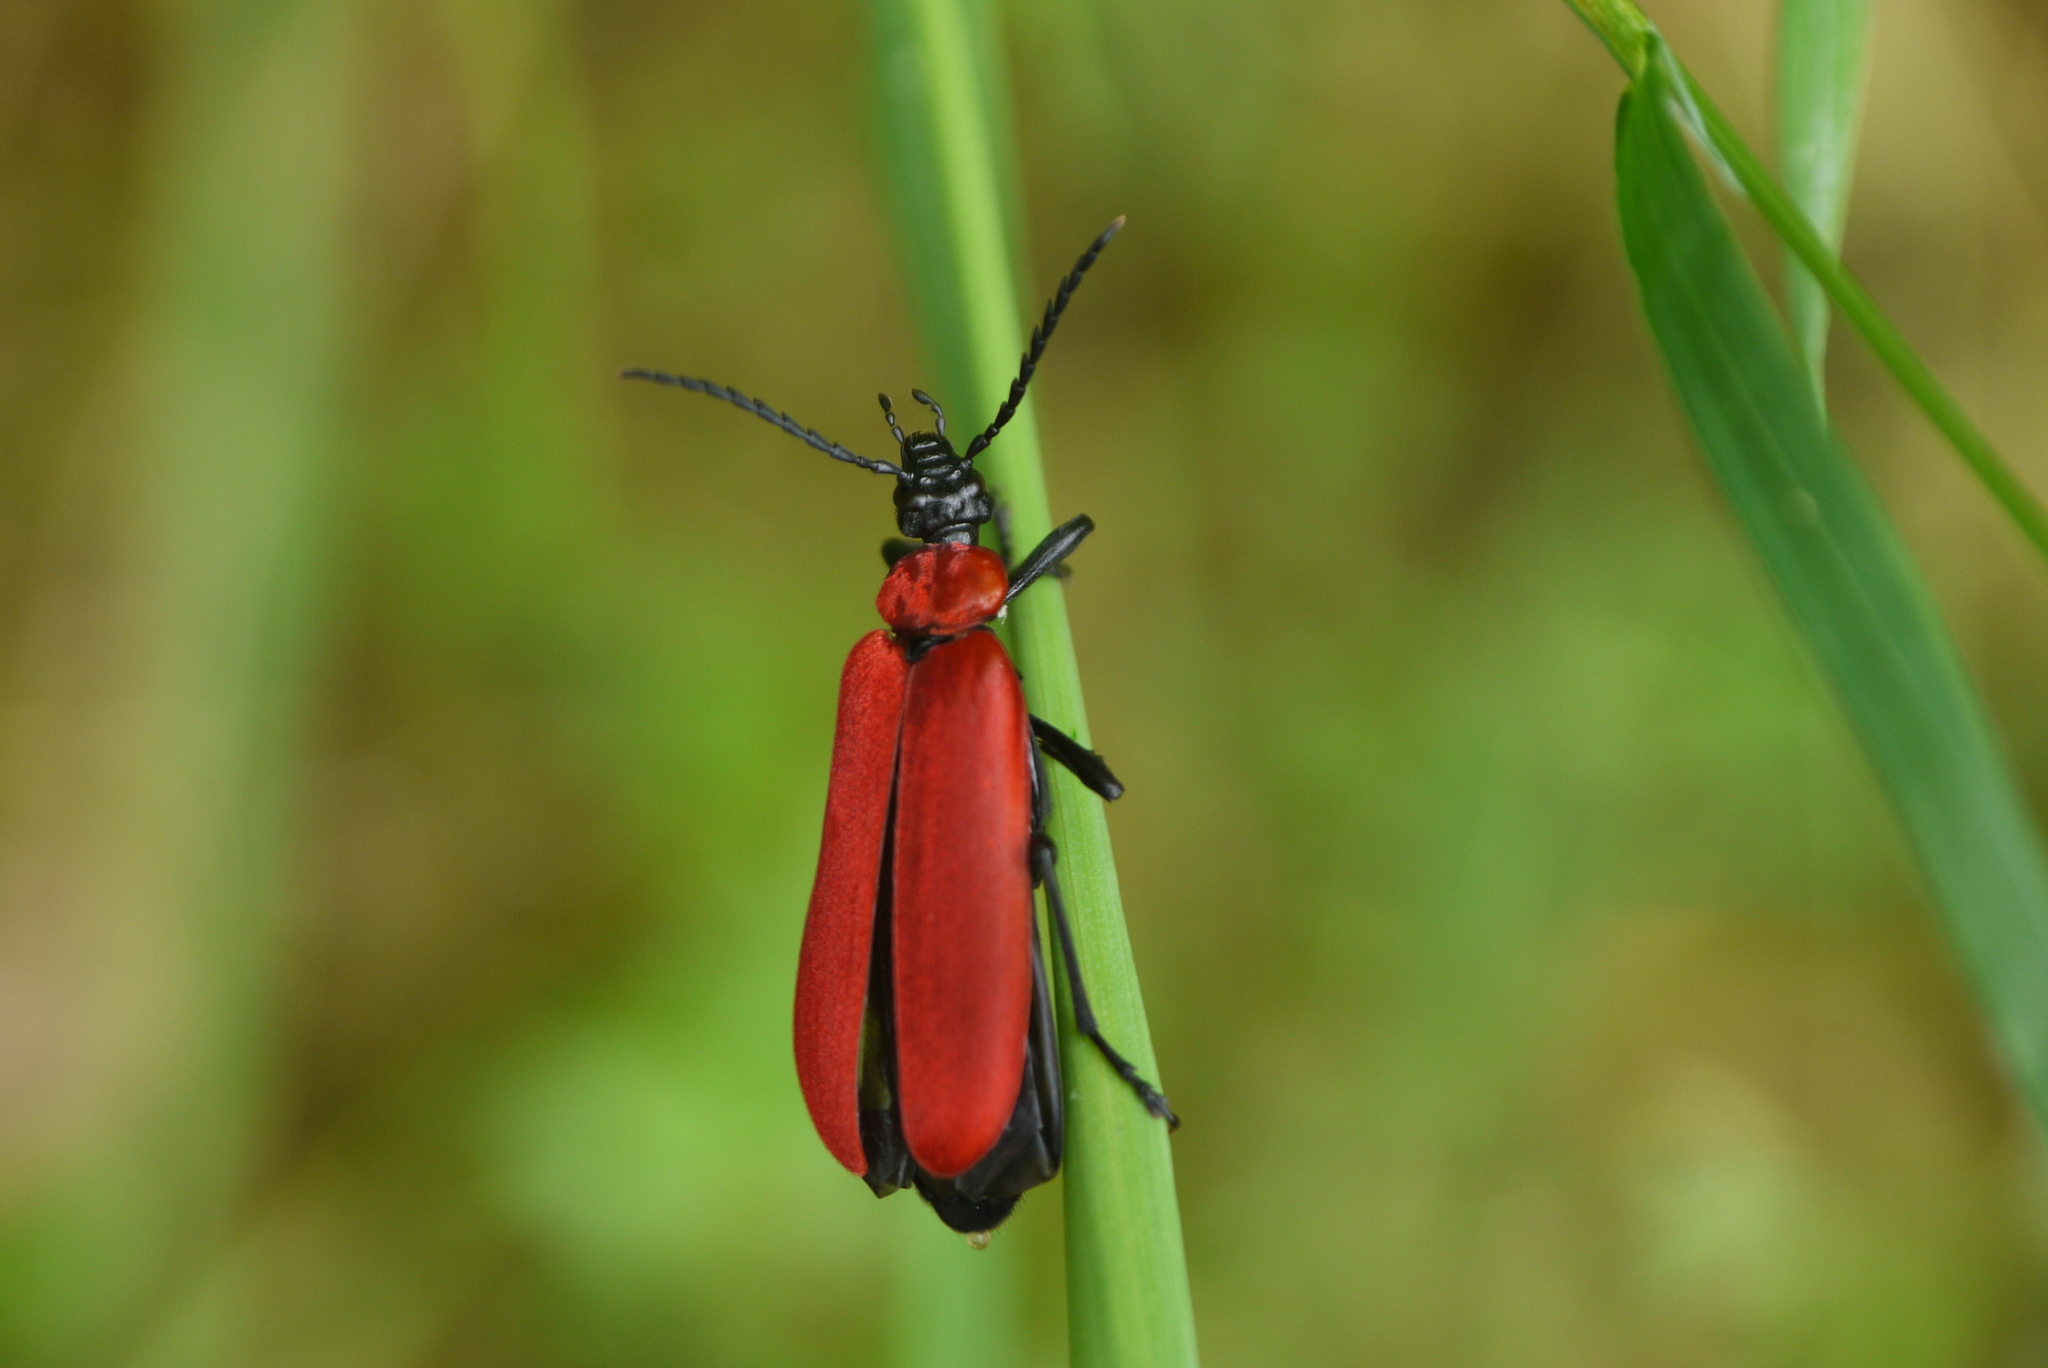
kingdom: Animalia
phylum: Arthropoda
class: Insecta
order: Coleoptera
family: Pyrochroidae
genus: Pyrochroa
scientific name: Pyrochroa coccinea
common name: Black-headed cardinal beetle
